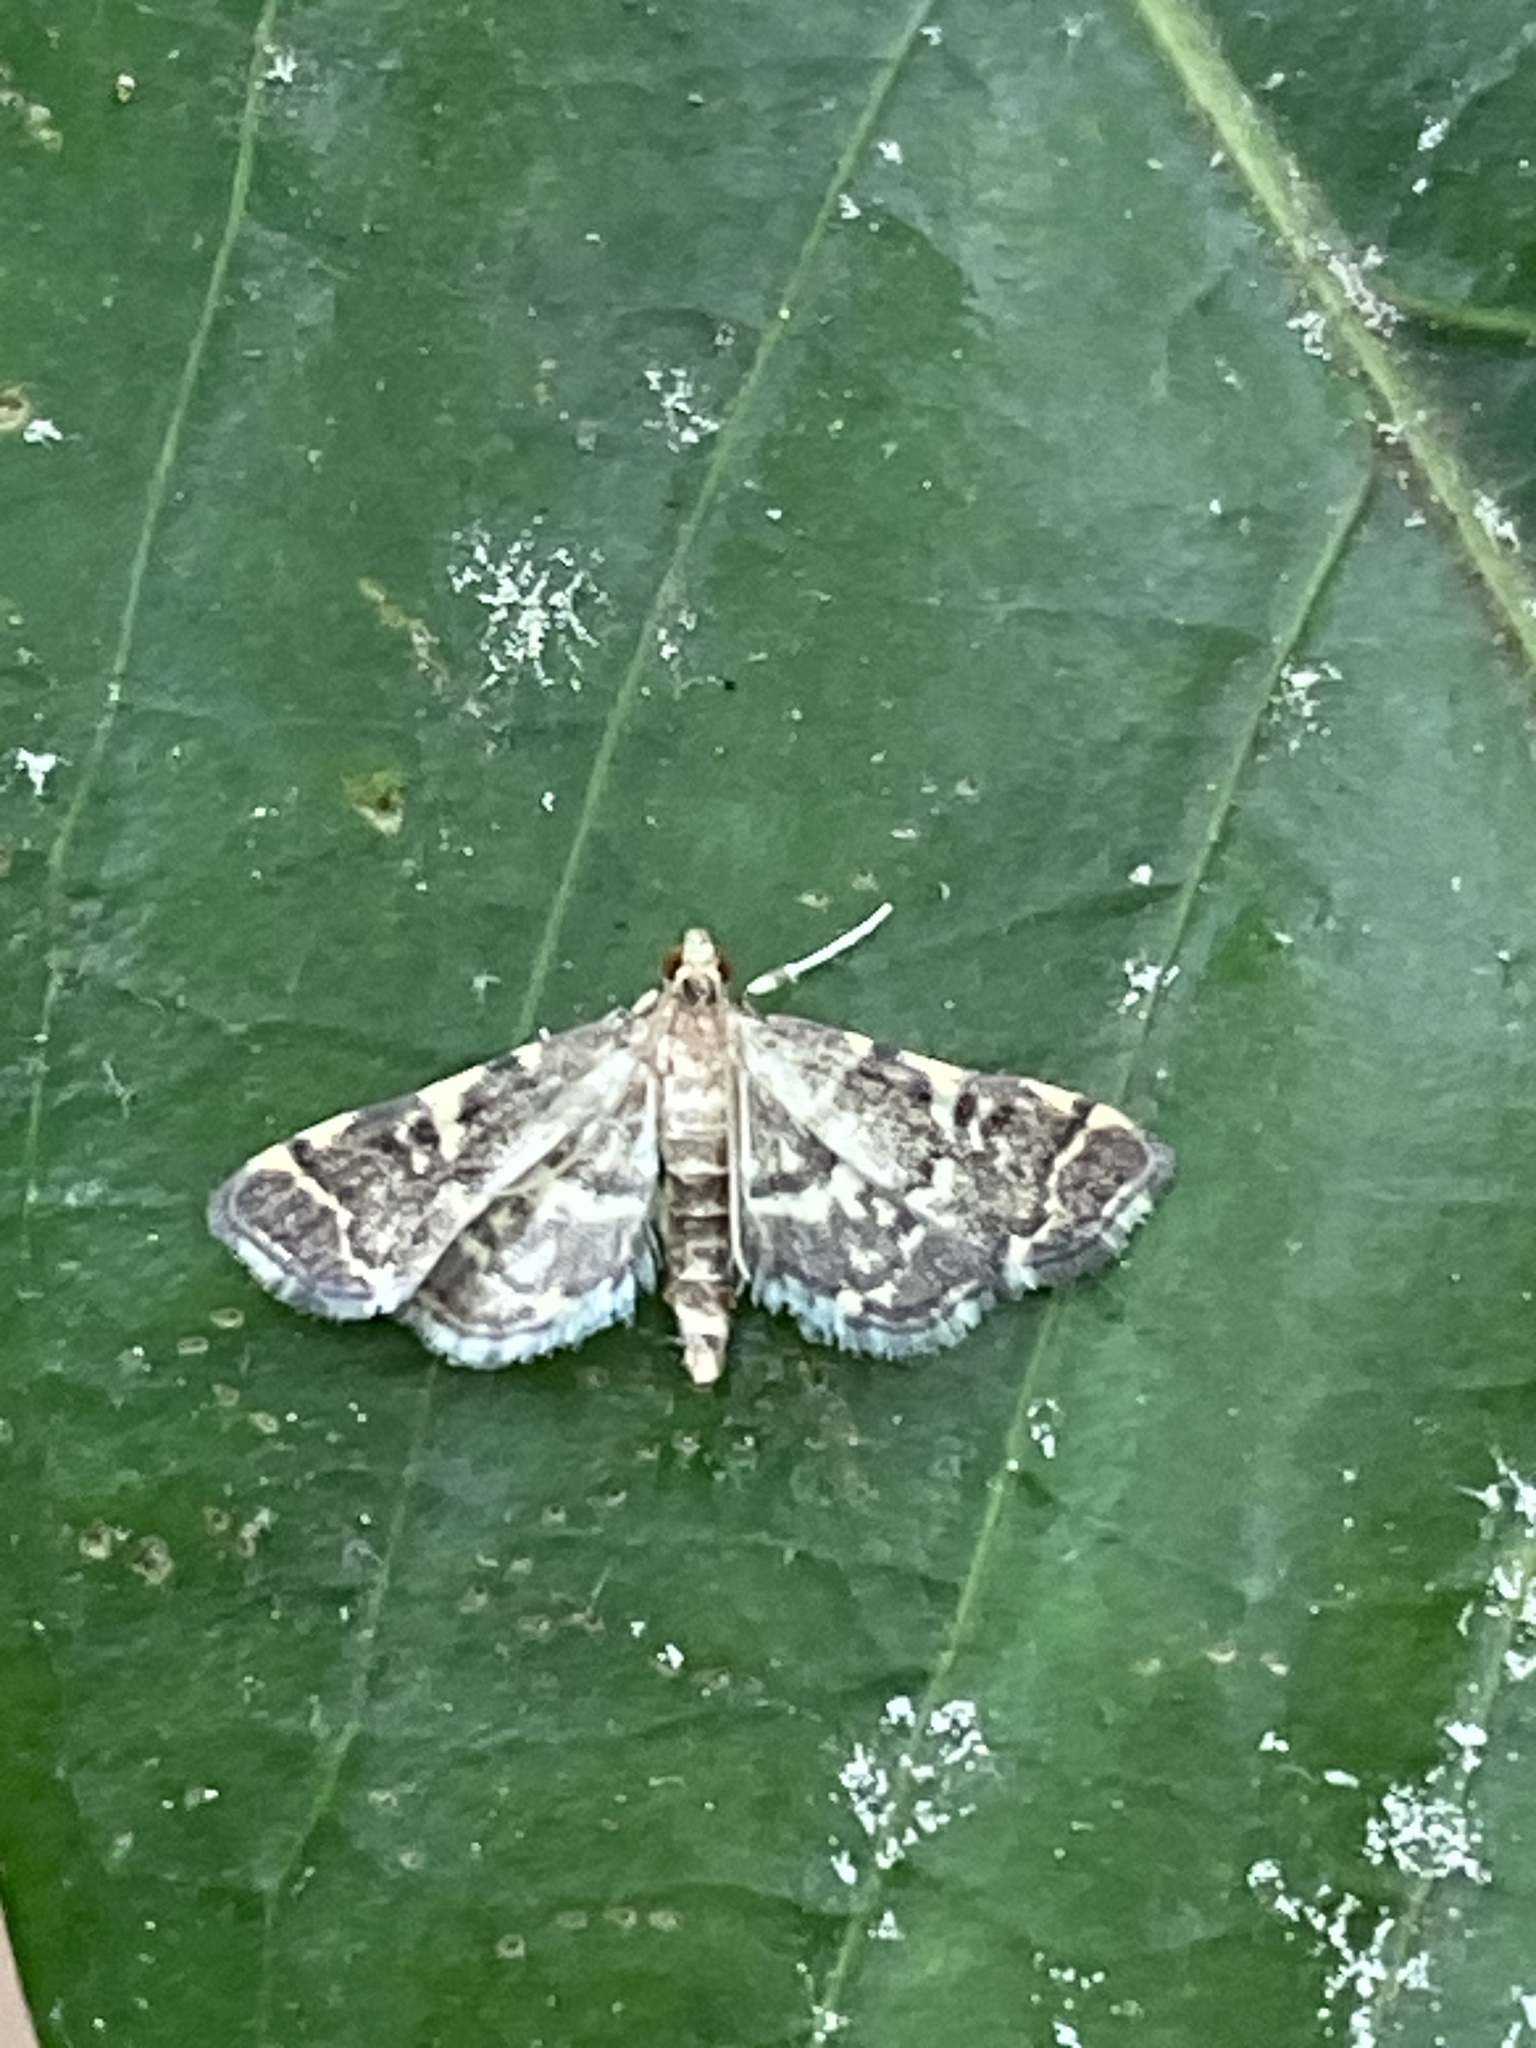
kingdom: Animalia
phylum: Arthropoda
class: Insecta
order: Lepidoptera
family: Crambidae
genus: Anageshna
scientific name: Anageshna primordialis
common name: Yellow-spotted webworm moth
